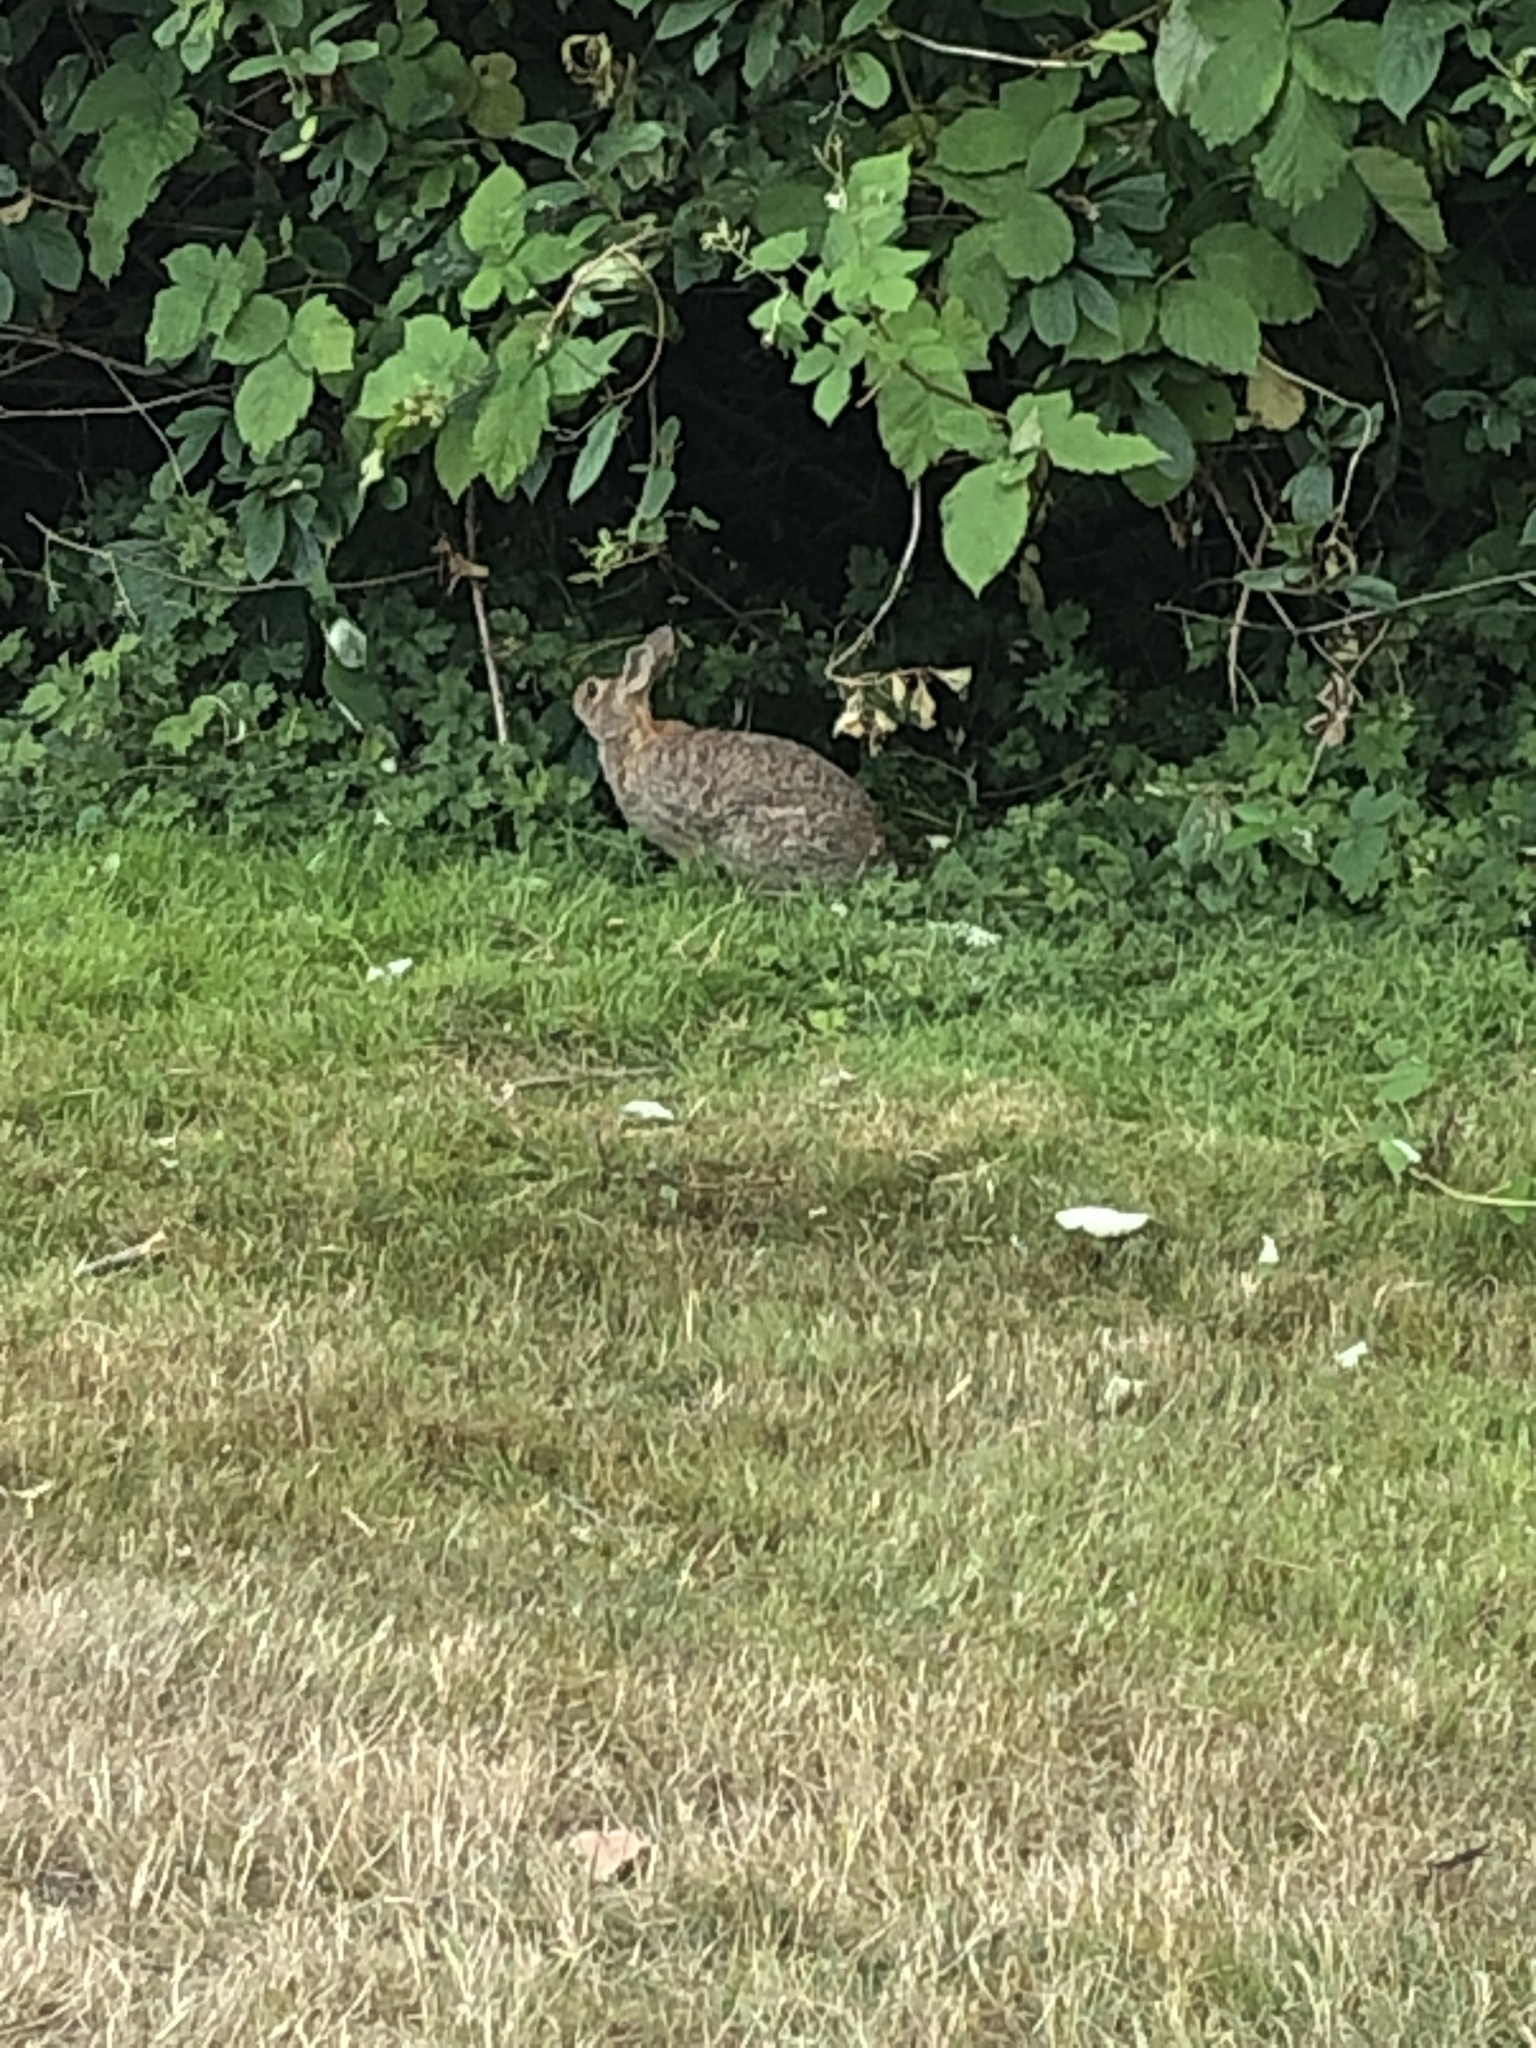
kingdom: Animalia
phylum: Chordata
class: Mammalia
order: Lagomorpha
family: Leporidae
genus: Sylvilagus
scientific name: Sylvilagus floridanus
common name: Eastern cottontail
